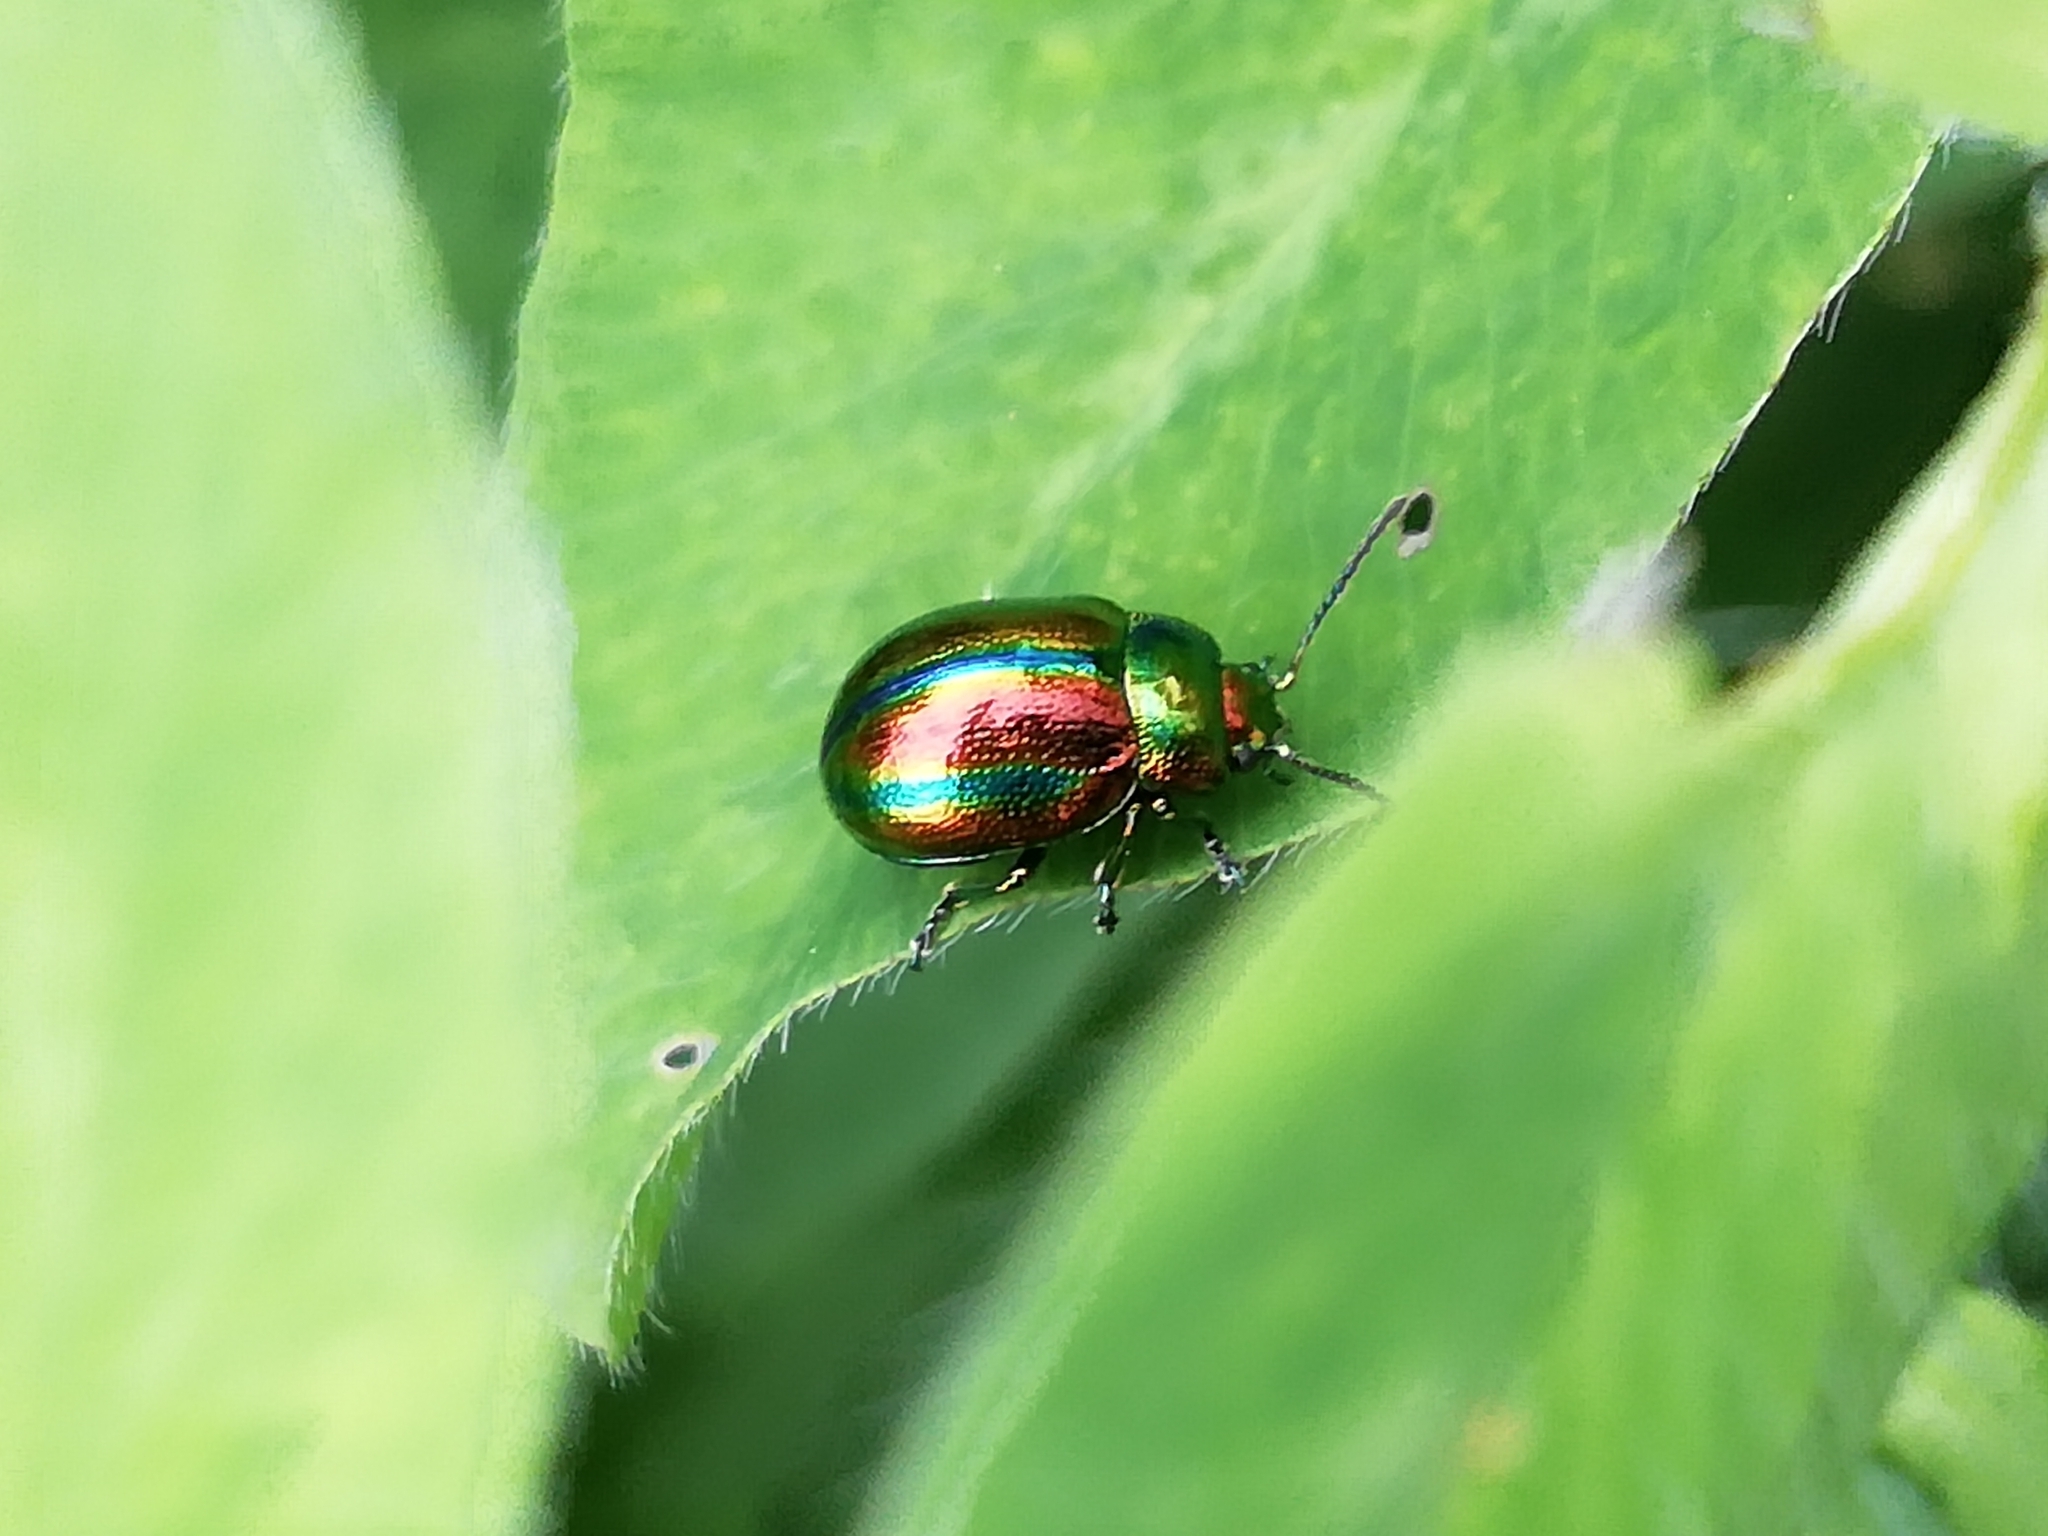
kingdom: Animalia
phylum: Arthropoda
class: Insecta
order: Coleoptera
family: Chrysomelidae
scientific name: Chrysomelidae
